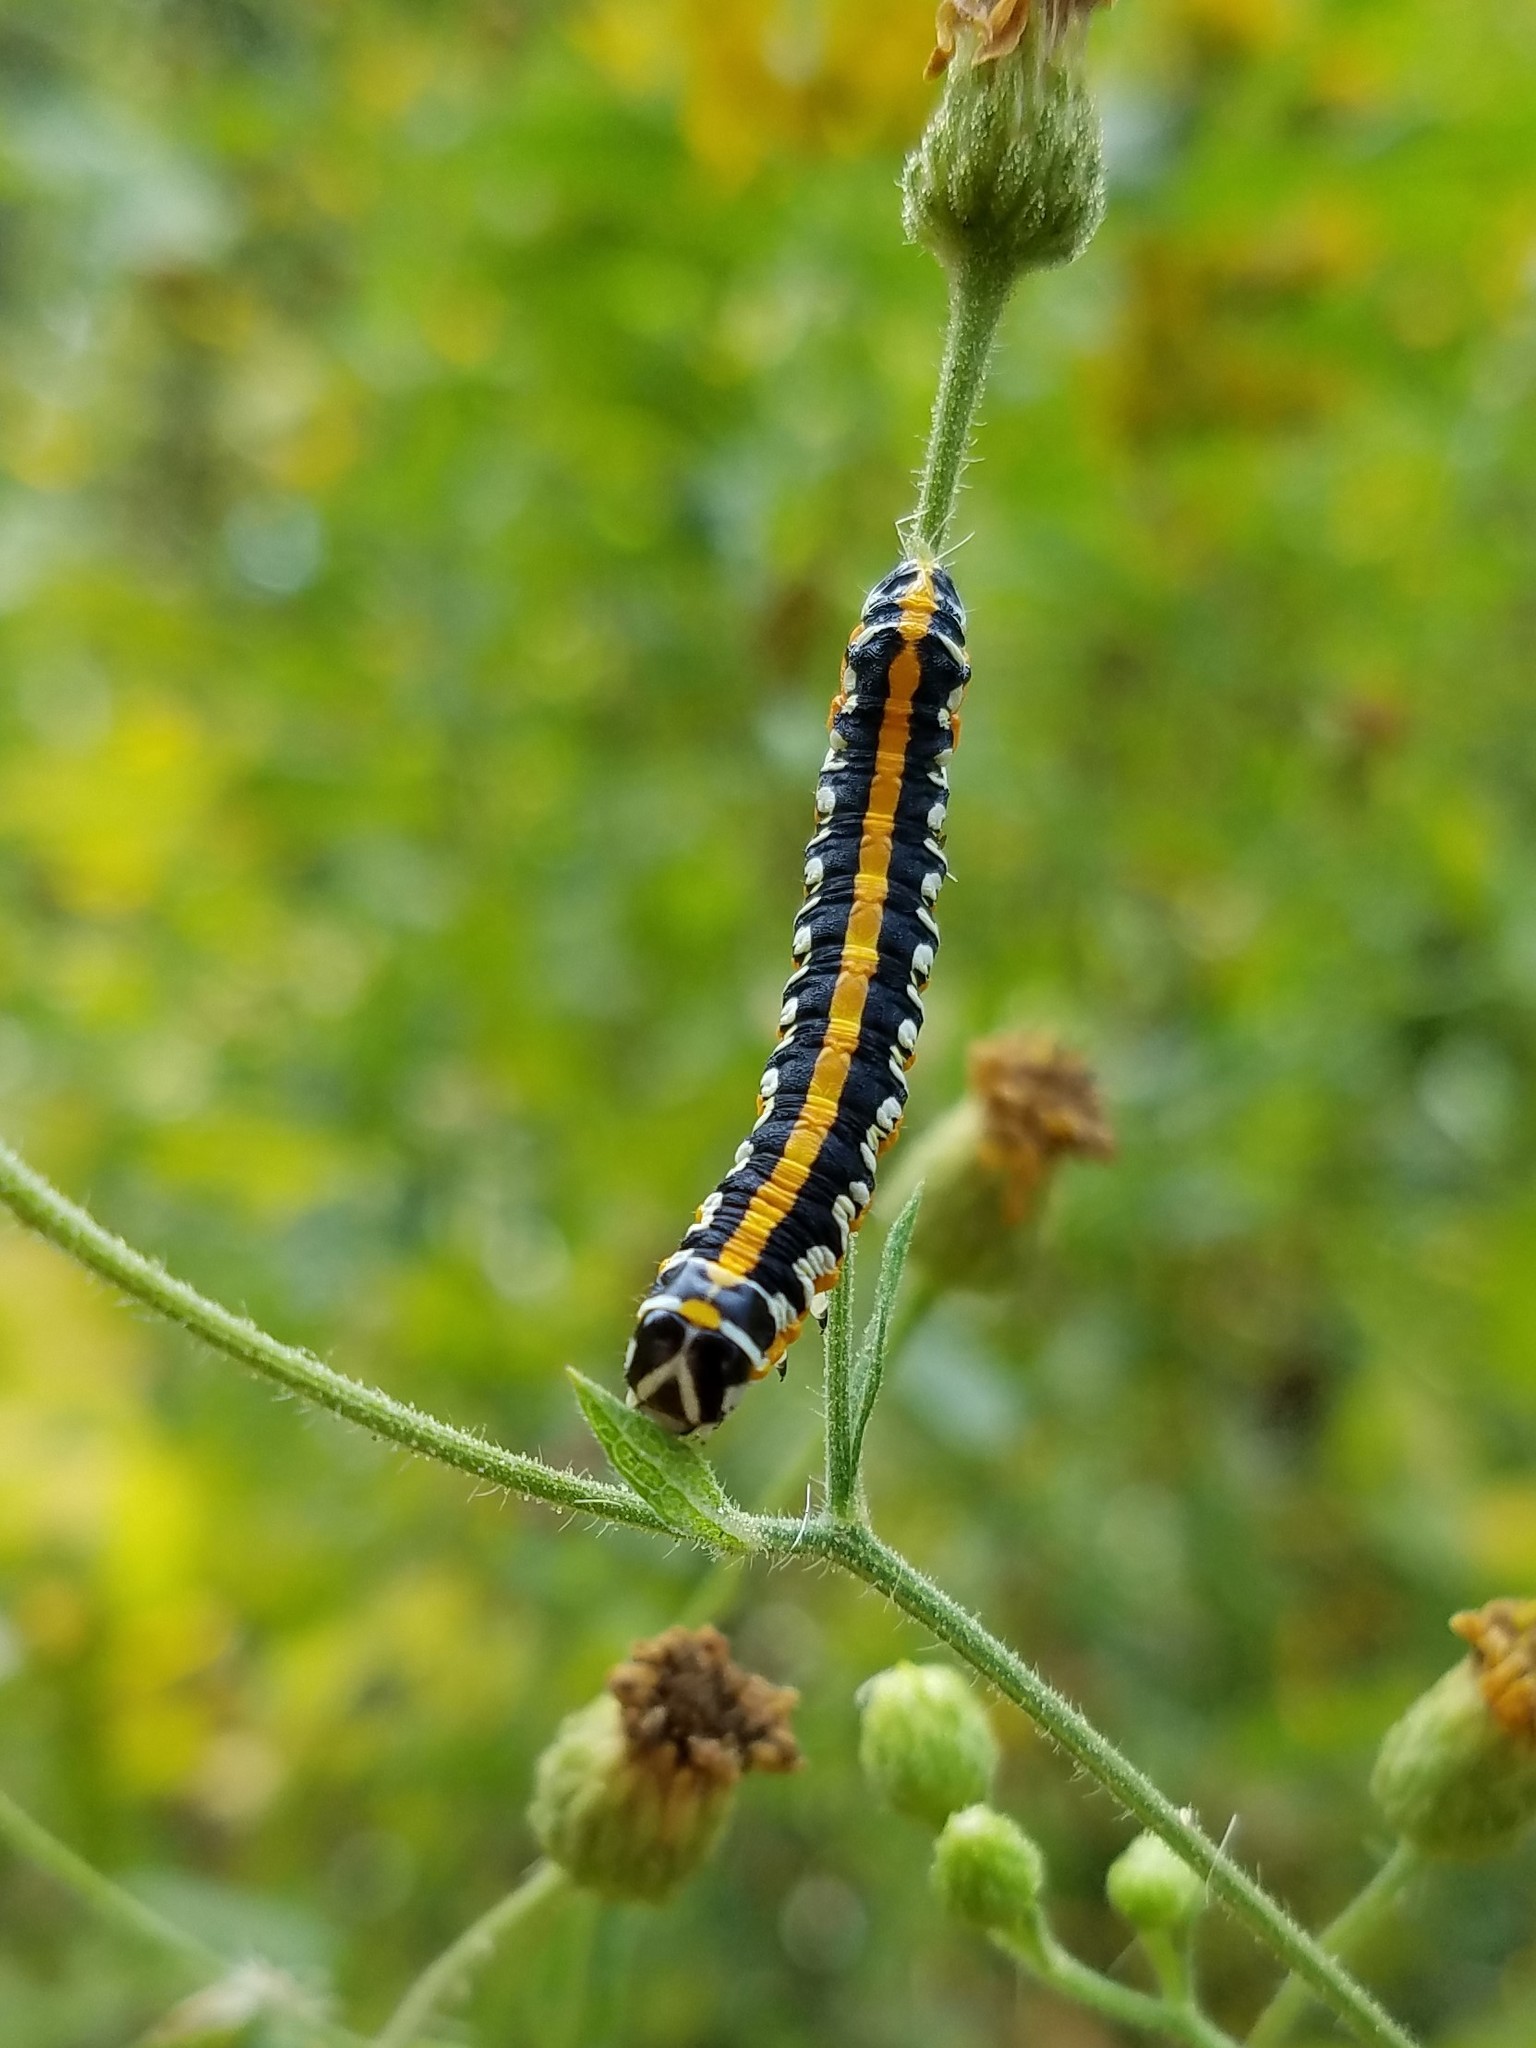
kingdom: Animalia
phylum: Arthropoda
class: Insecta
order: Lepidoptera
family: Noctuidae
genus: Cucullia
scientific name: Cucullia alfarata
